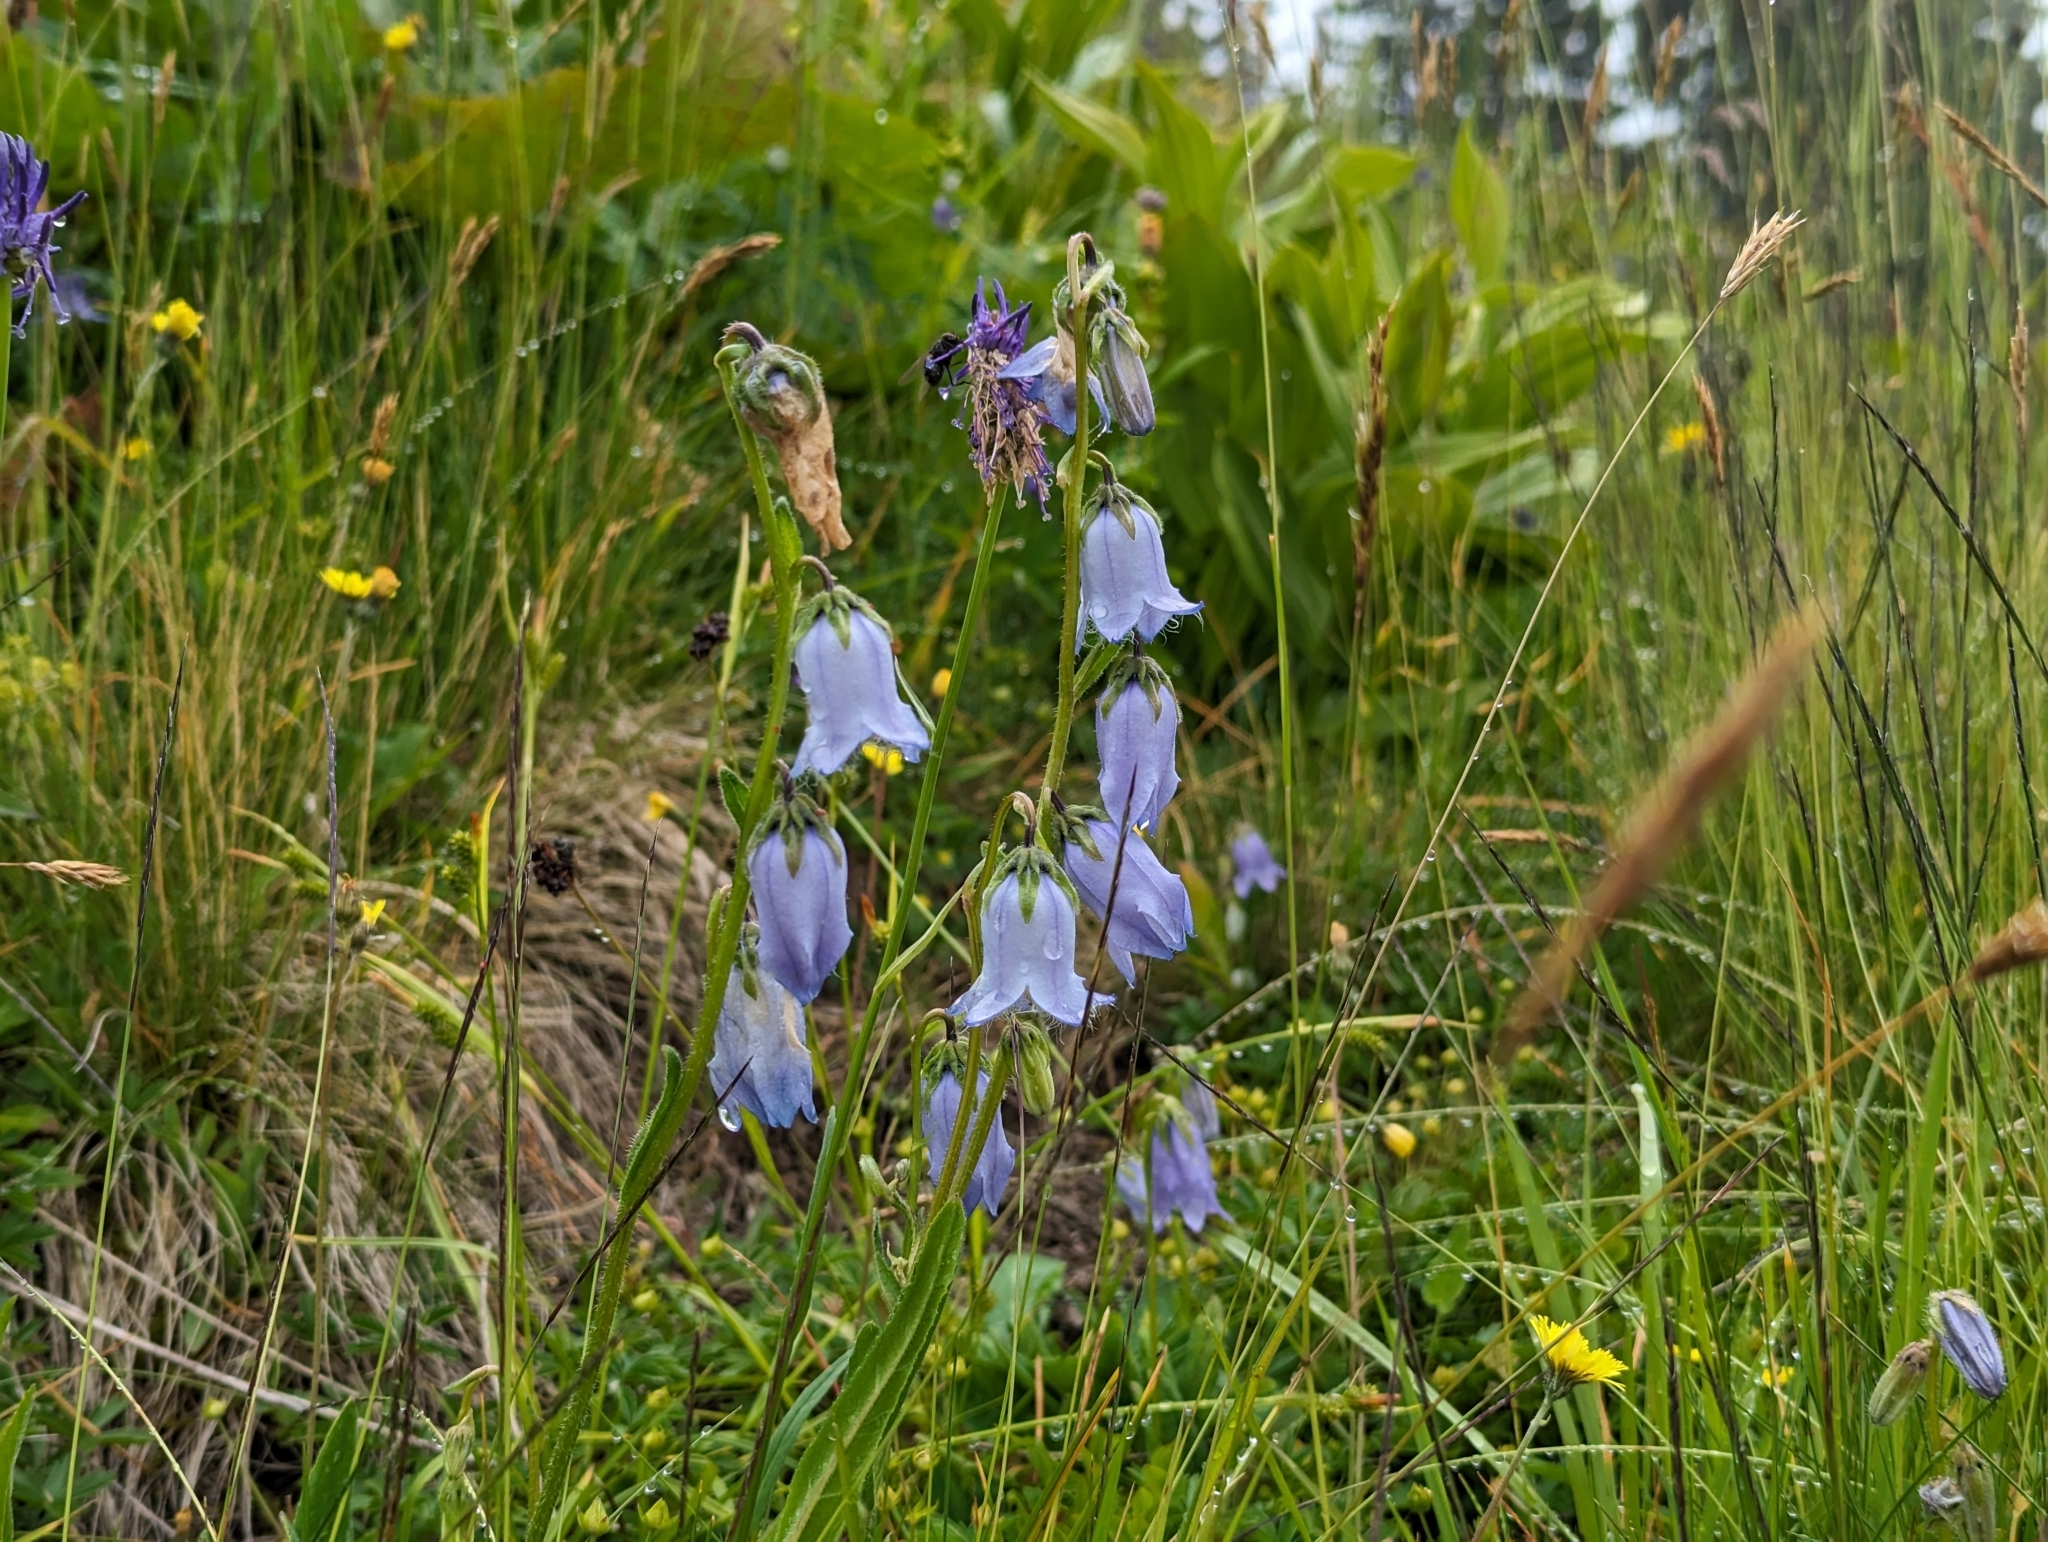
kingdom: Plantae
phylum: Tracheophyta
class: Magnoliopsida
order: Asterales
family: Campanulaceae
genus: Campanula
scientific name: Campanula barbata
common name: Bearded bellflower
